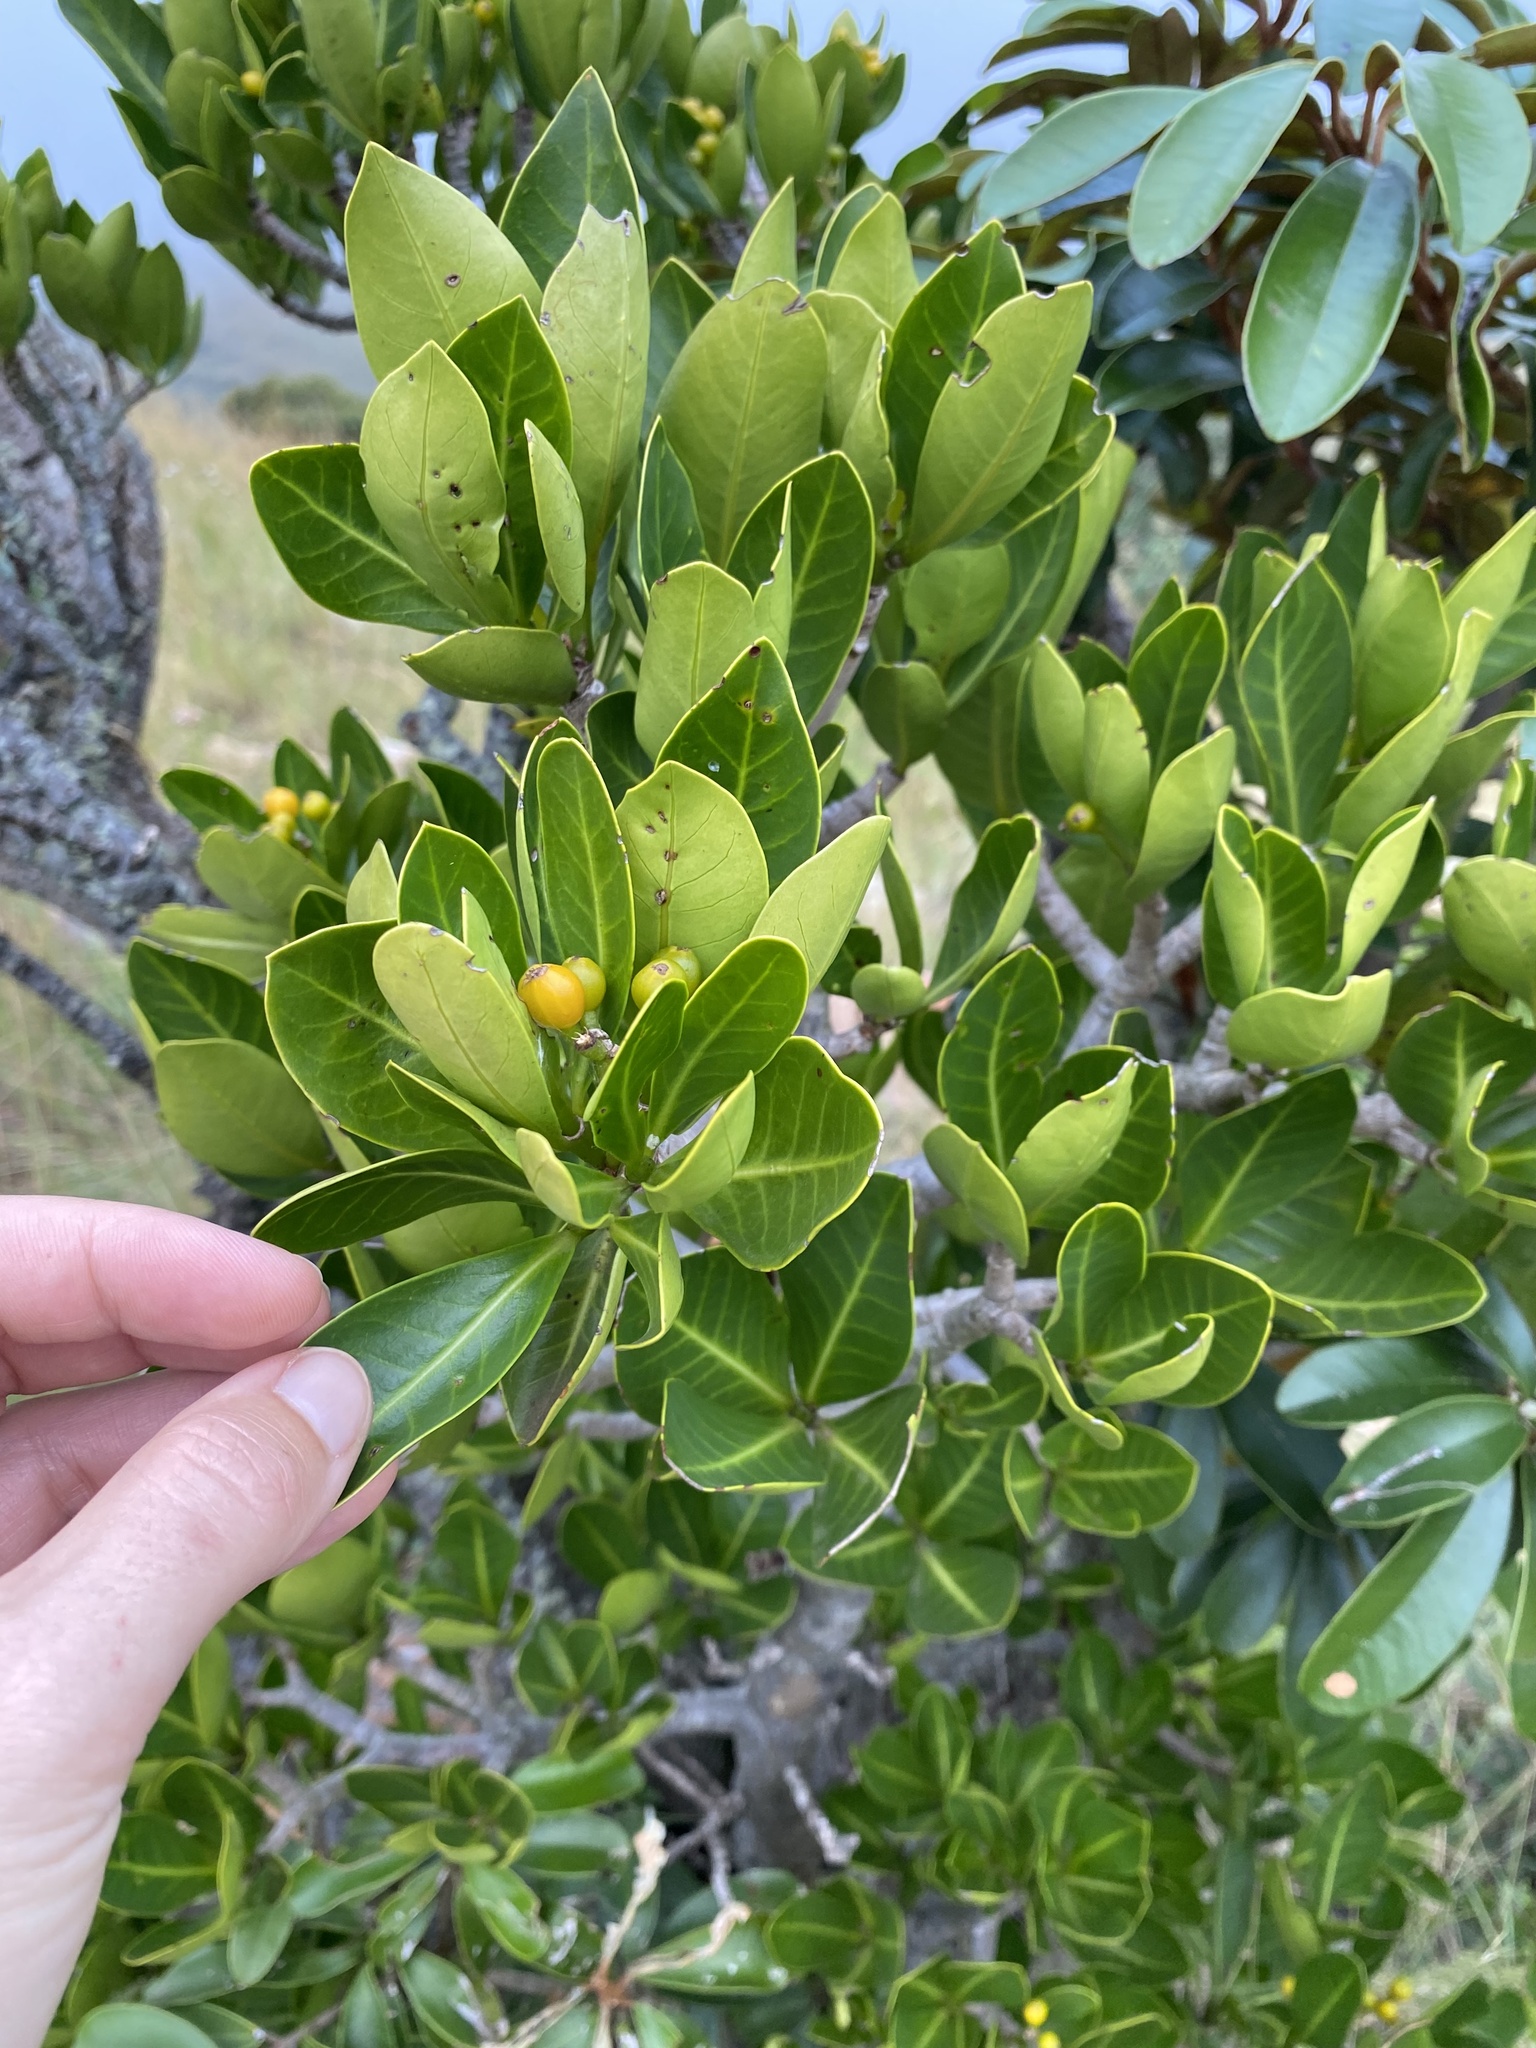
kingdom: Plantae
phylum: Tracheophyta
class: Magnoliopsida
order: Gentianales
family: Rubiaceae
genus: Psychotria
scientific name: Psychotria
